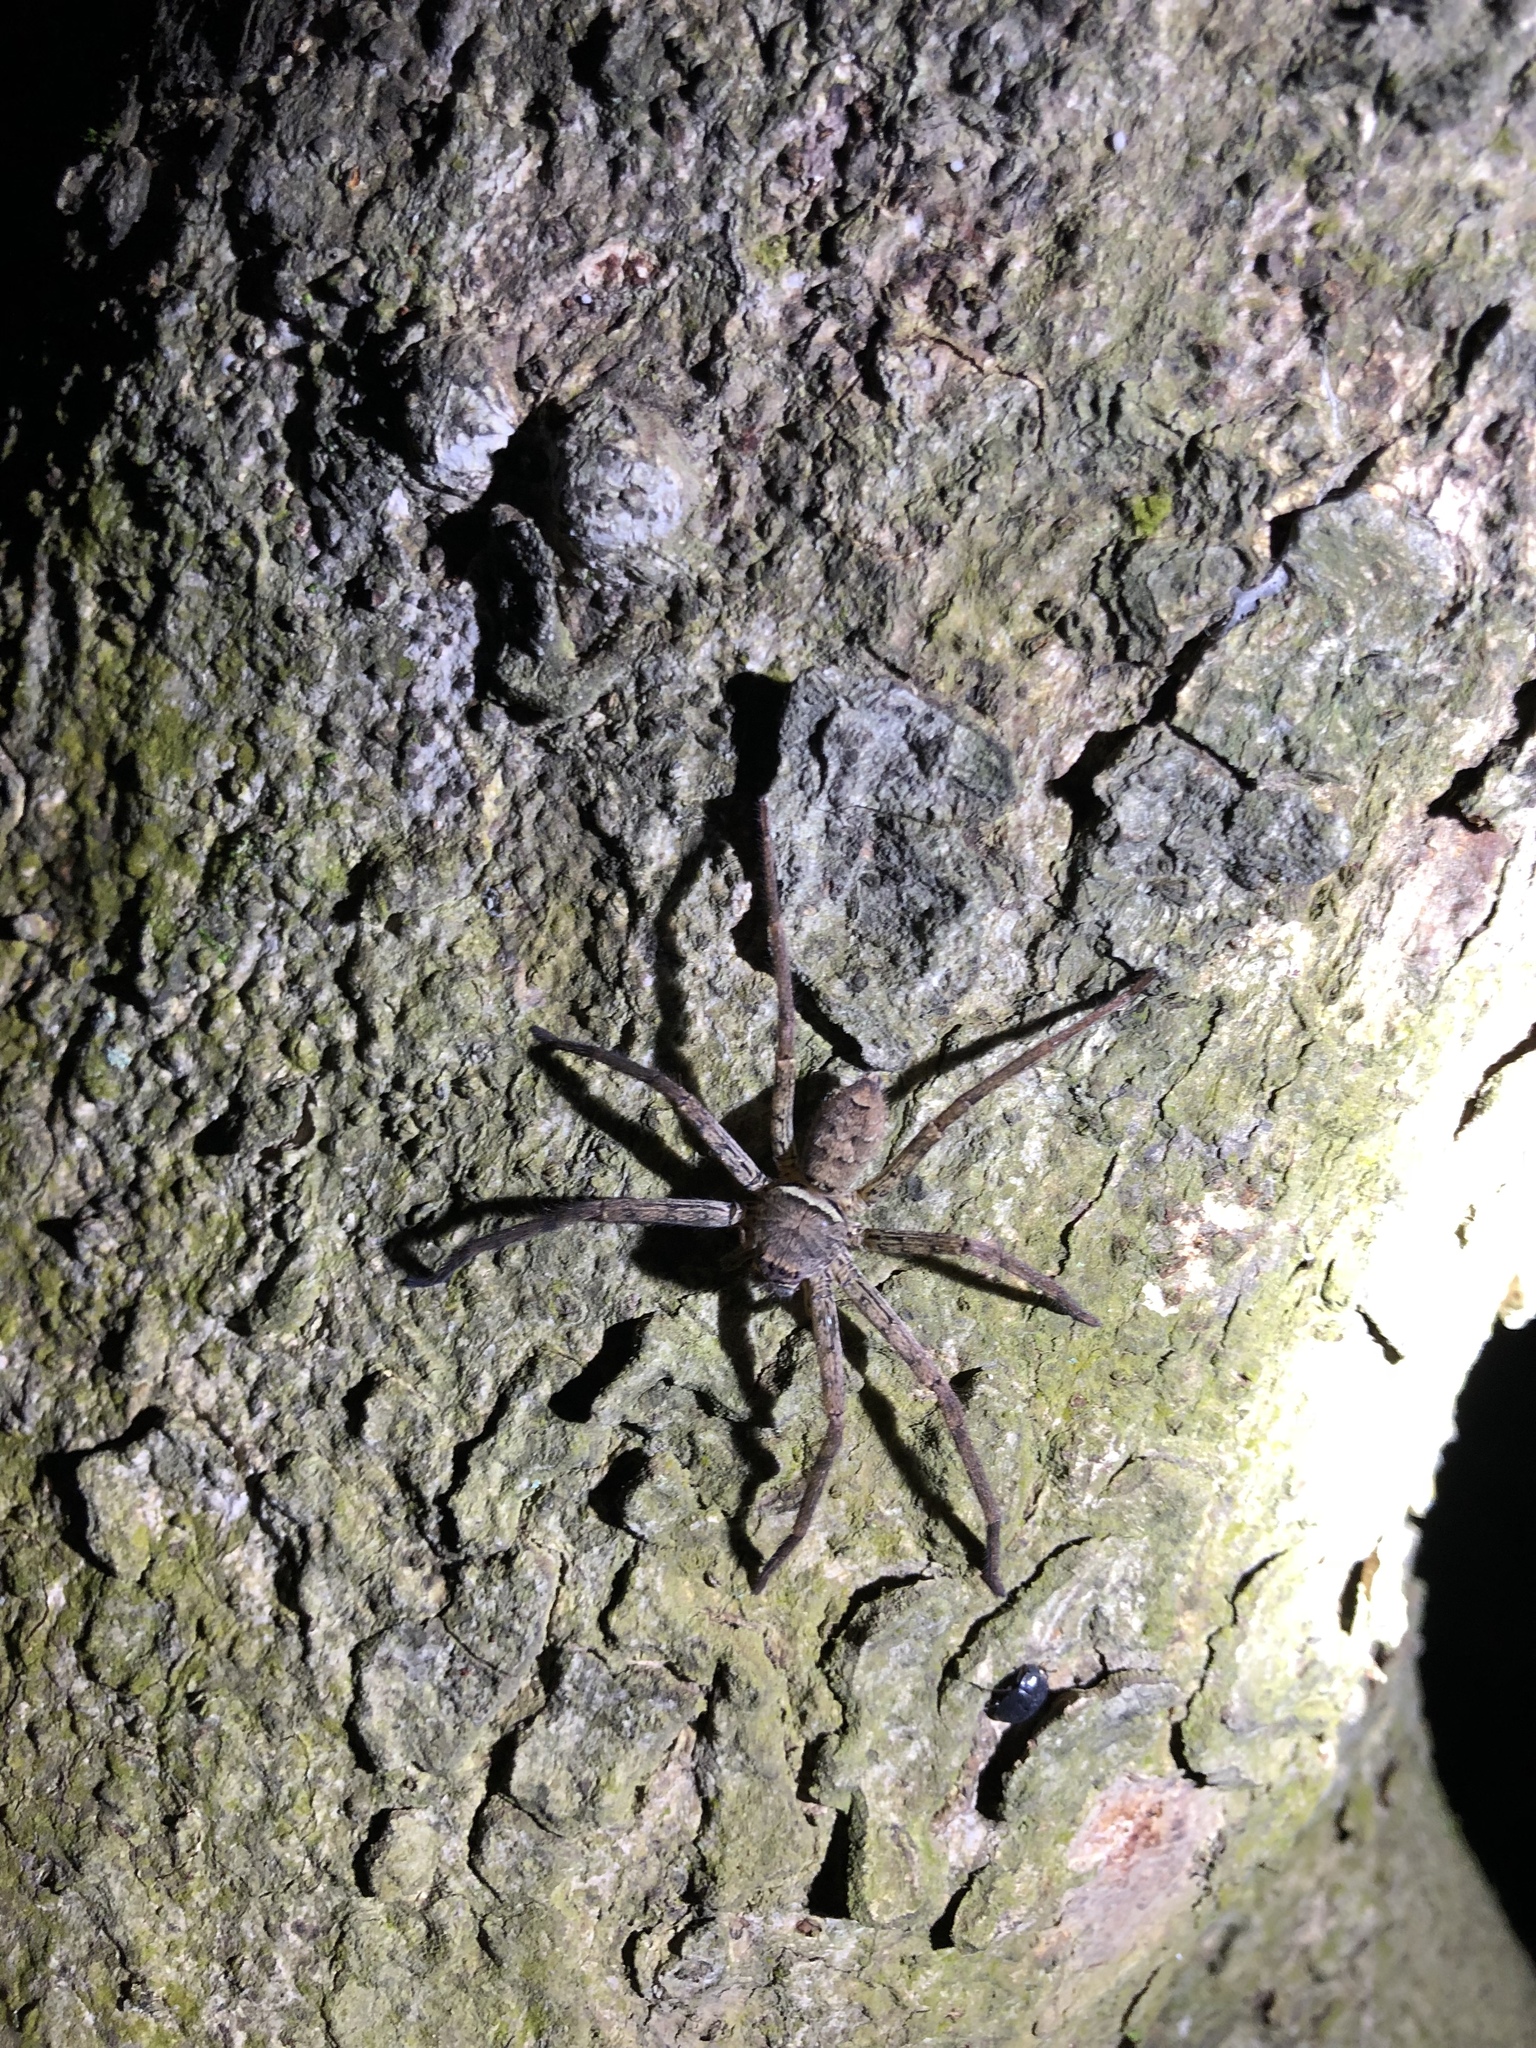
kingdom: Animalia
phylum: Arthropoda
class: Arachnida
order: Araneae
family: Sparassidae
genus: Heteropoda
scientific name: Heteropoda venatoria
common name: Huntsman spider
